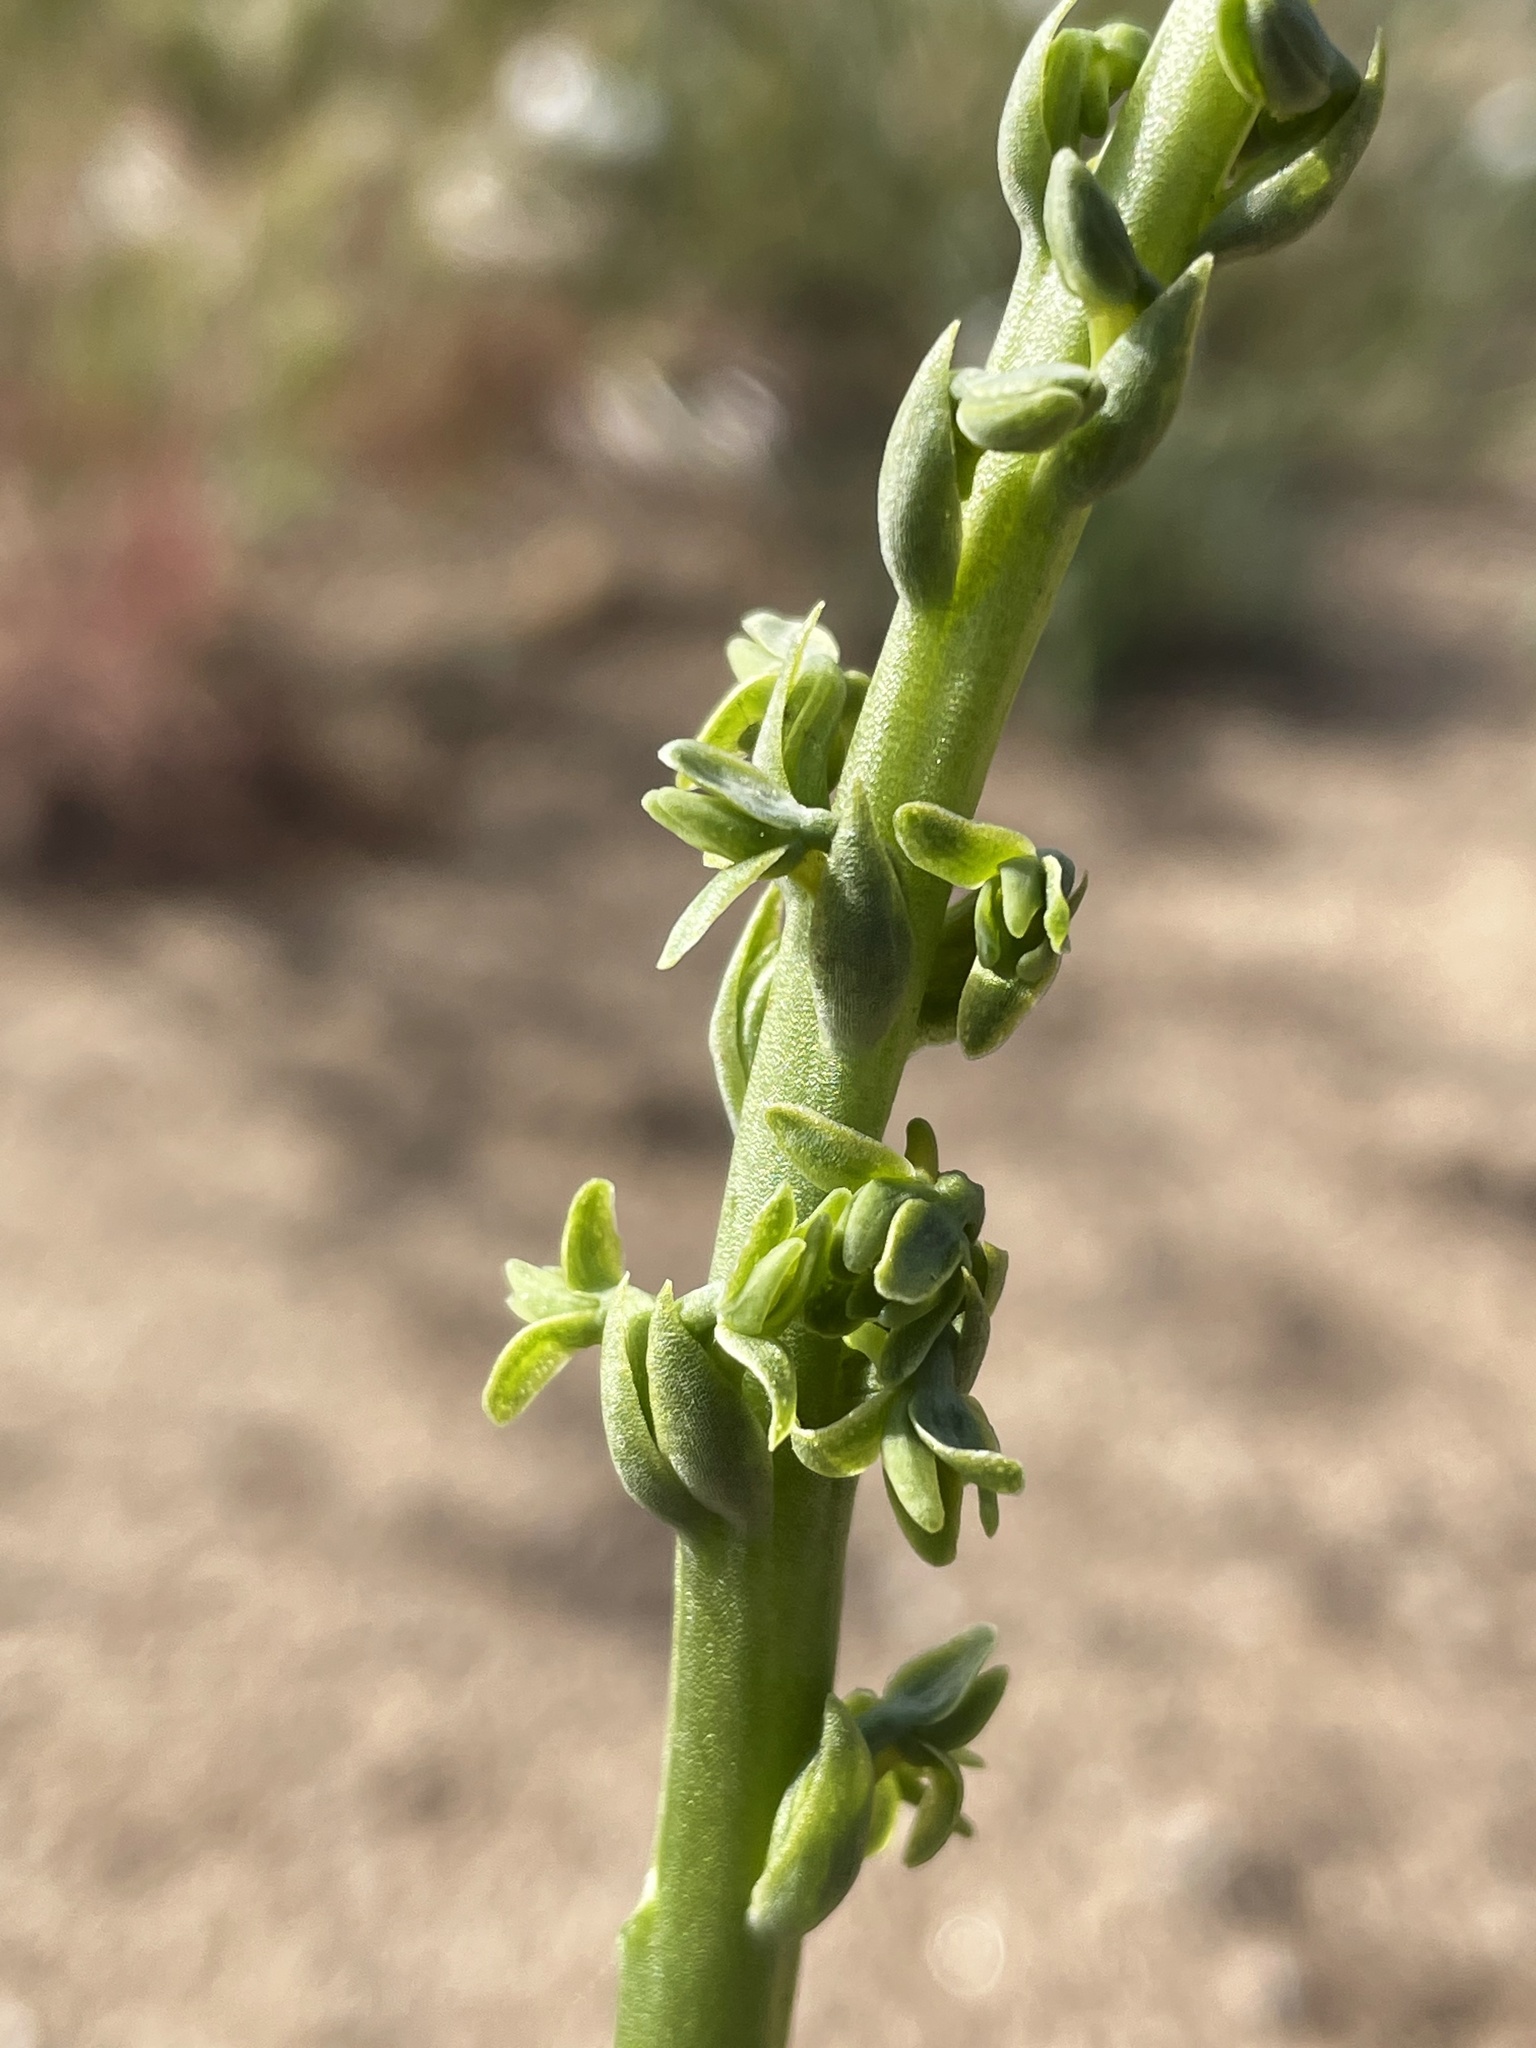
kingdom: Plantae
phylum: Tracheophyta
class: Liliopsida
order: Asparagales
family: Orchidaceae
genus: Platanthera
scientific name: Platanthera cooperi
